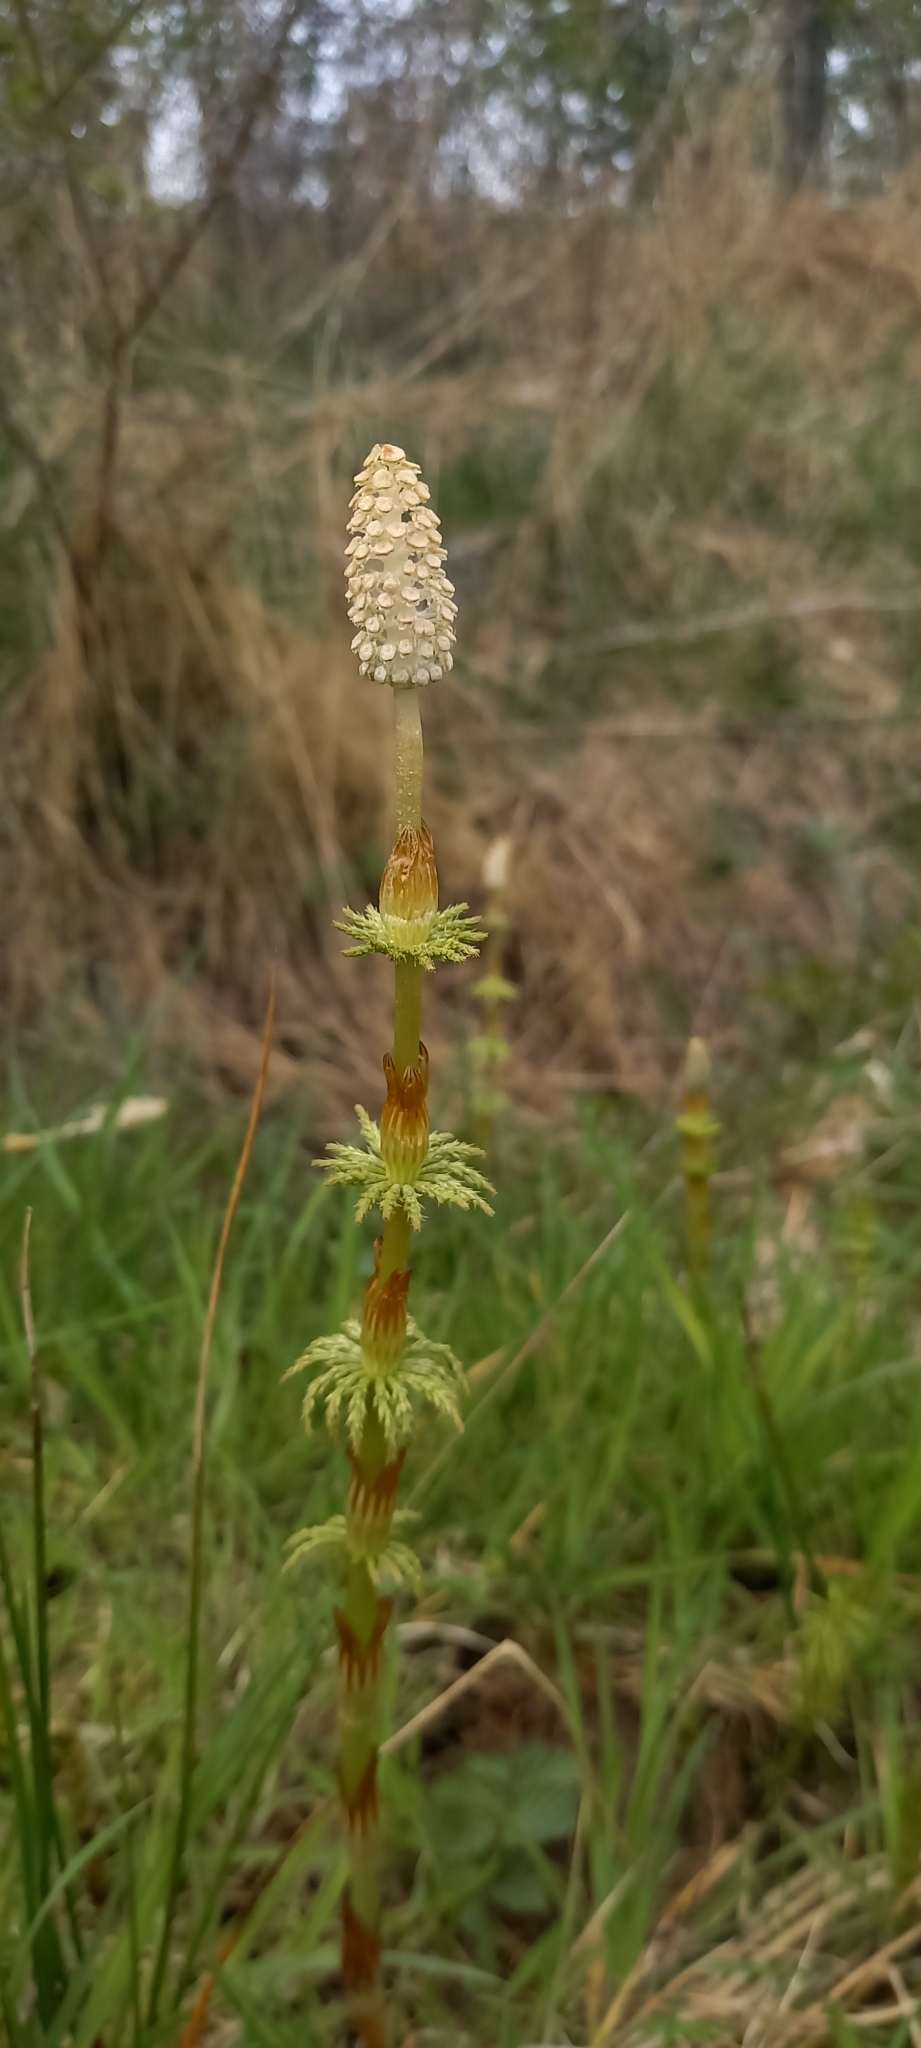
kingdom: Plantae
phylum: Tracheophyta
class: Polypodiopsida
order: Equisetales
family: Equisetaceae
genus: Equisetum
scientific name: Equisetum sylvaticum
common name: Wood horsetail
